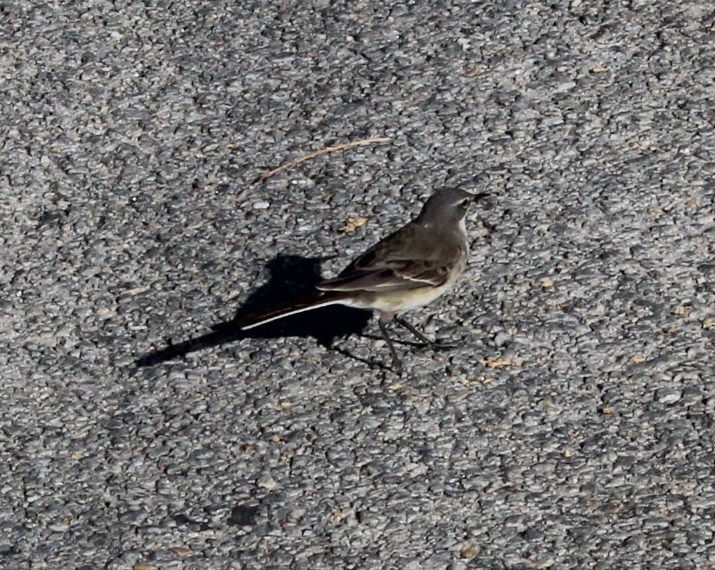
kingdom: Animalia
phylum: Chordata
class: Aves
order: Passeriformes
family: Motacillidae
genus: Motacilla
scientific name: Motacilla capensis
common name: Cape wagtail
